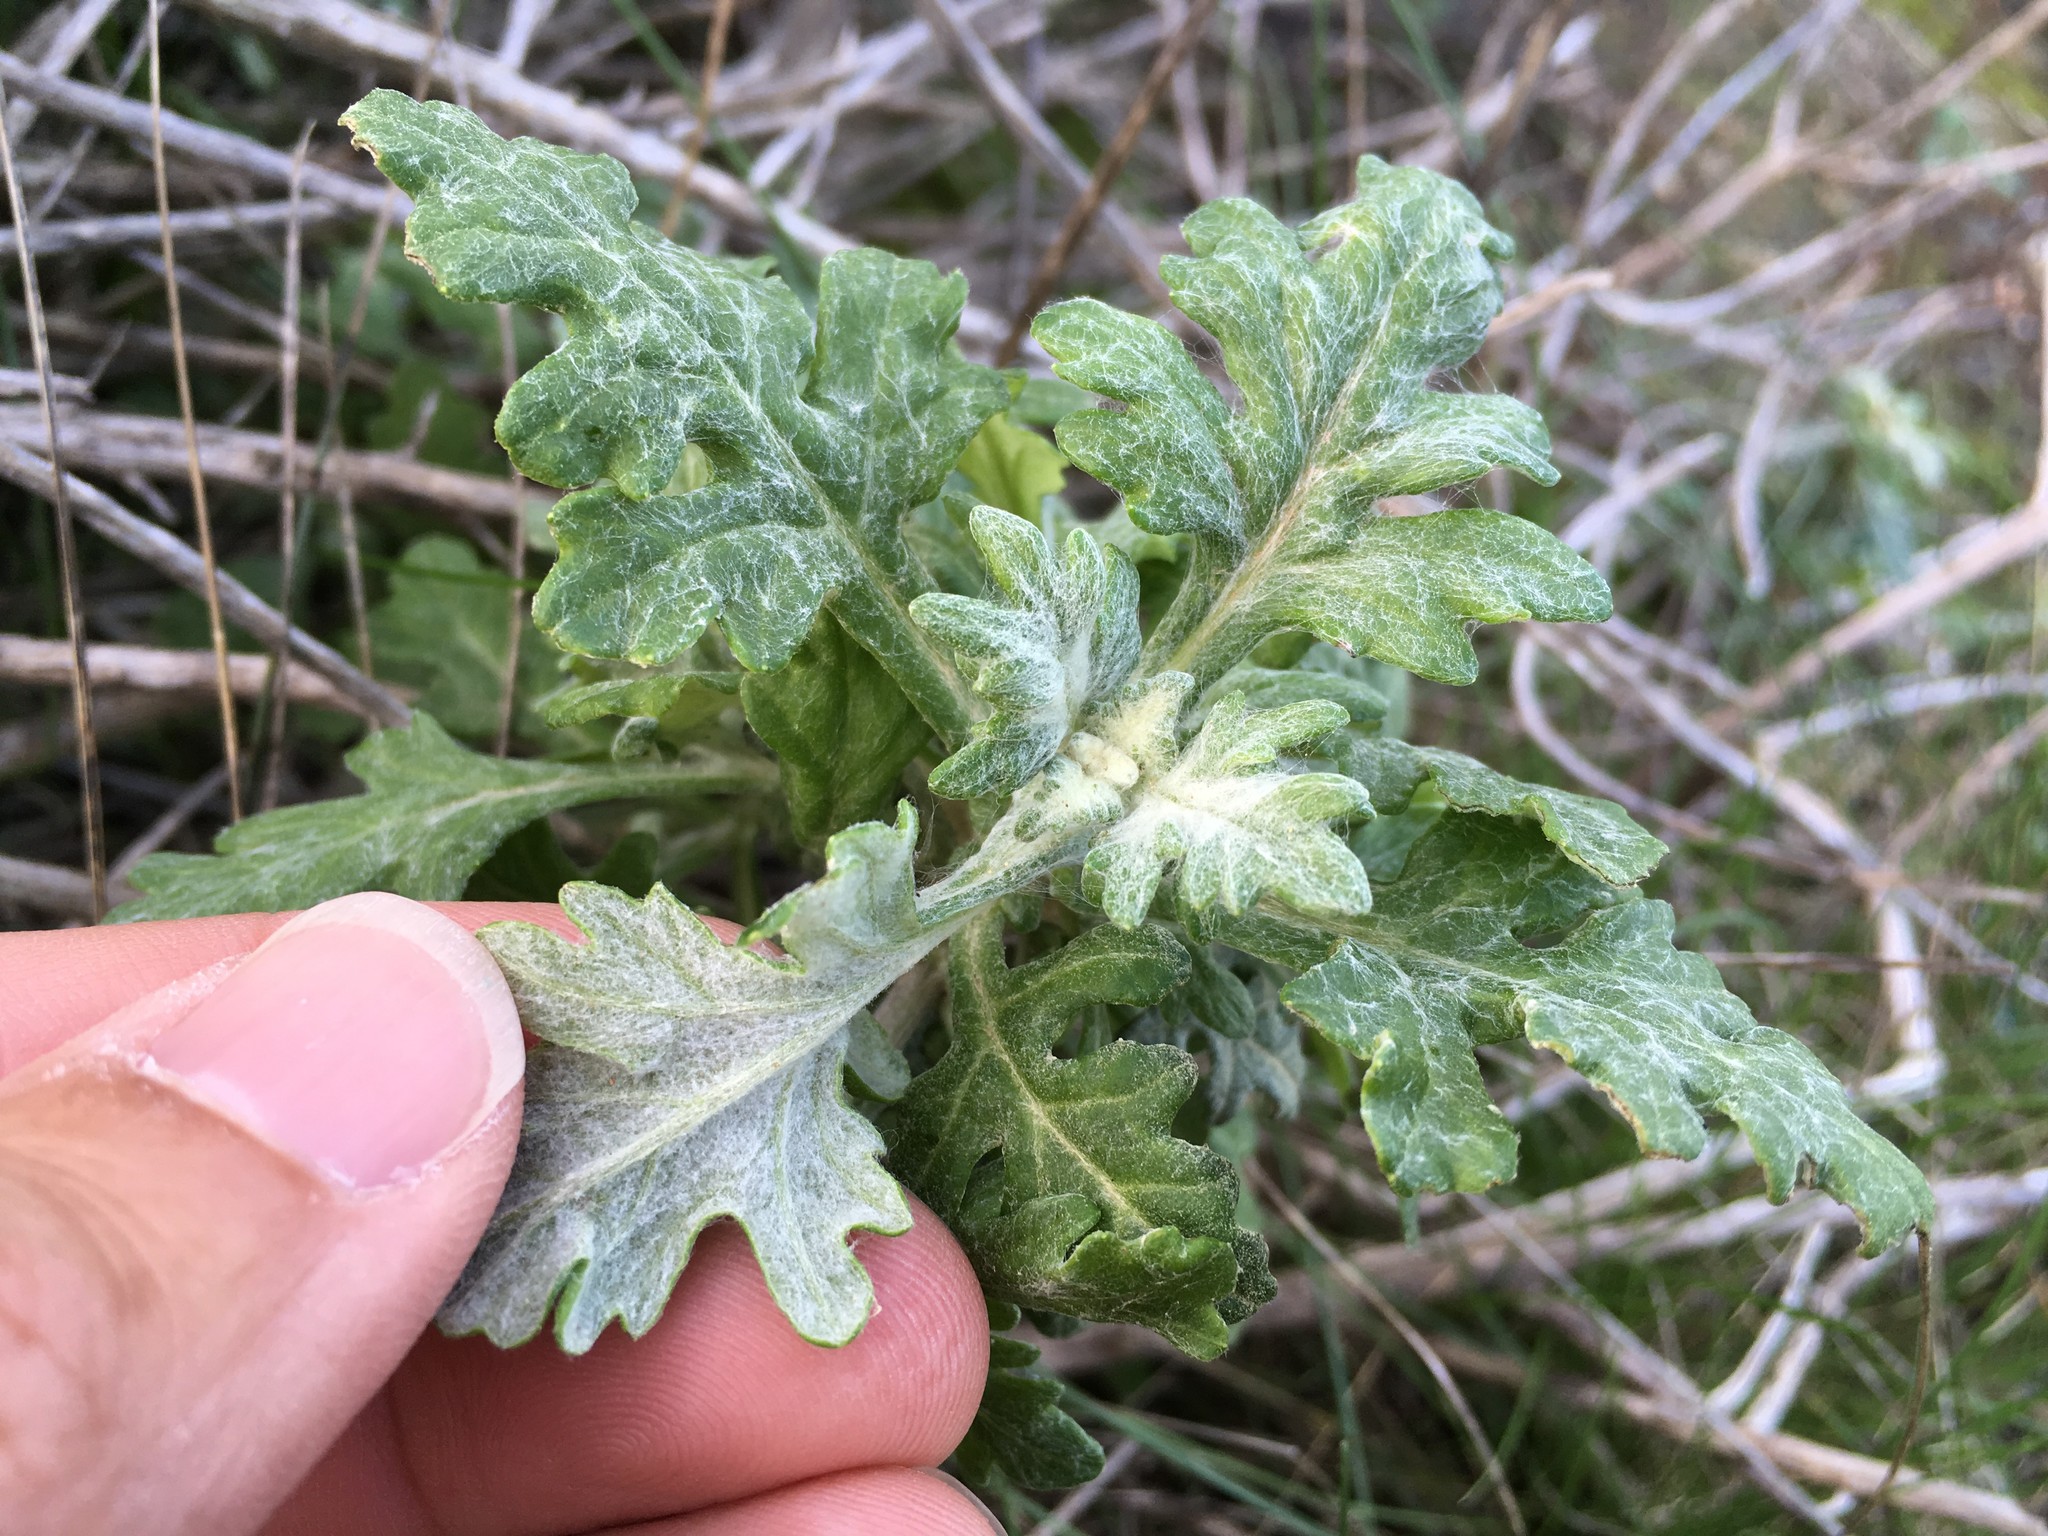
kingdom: Plantae
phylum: Tracheophyta
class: Magnoliopsida
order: Asterales
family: Asteraceae
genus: Eriophyllum
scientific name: Eriophyllum staechadifolium
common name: Lizardtail
